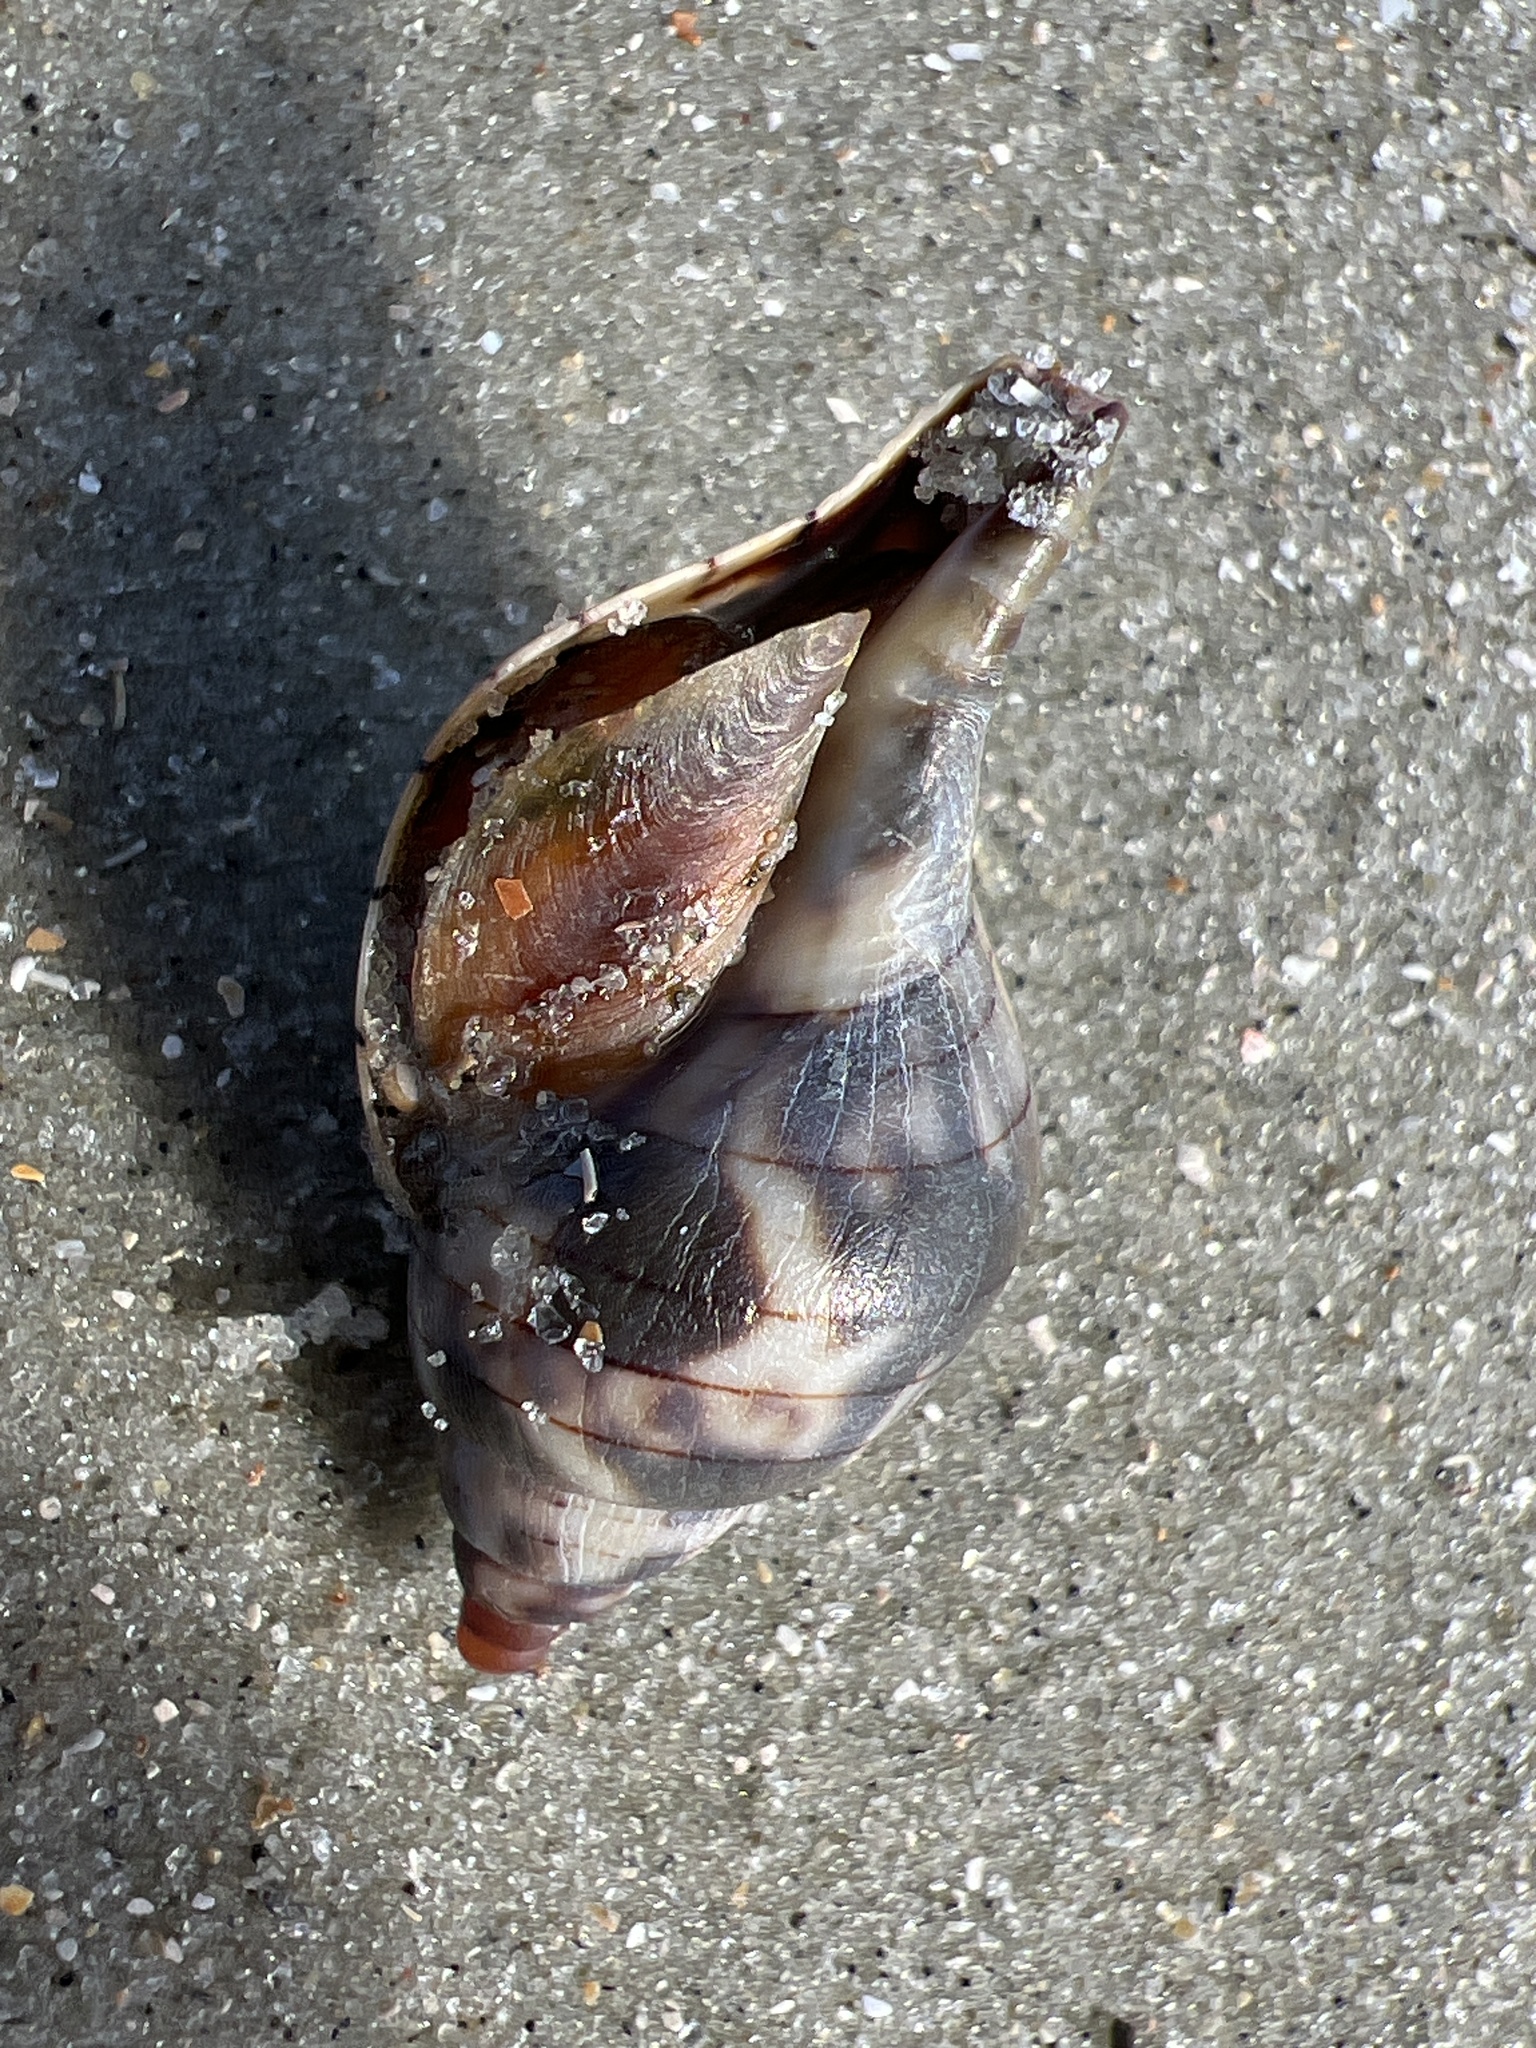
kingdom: Animalia
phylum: Mollusca
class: Gastropoda
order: Neogastropoda
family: Fasciolariidae
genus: Cinctura
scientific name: Cinctura hunteria
